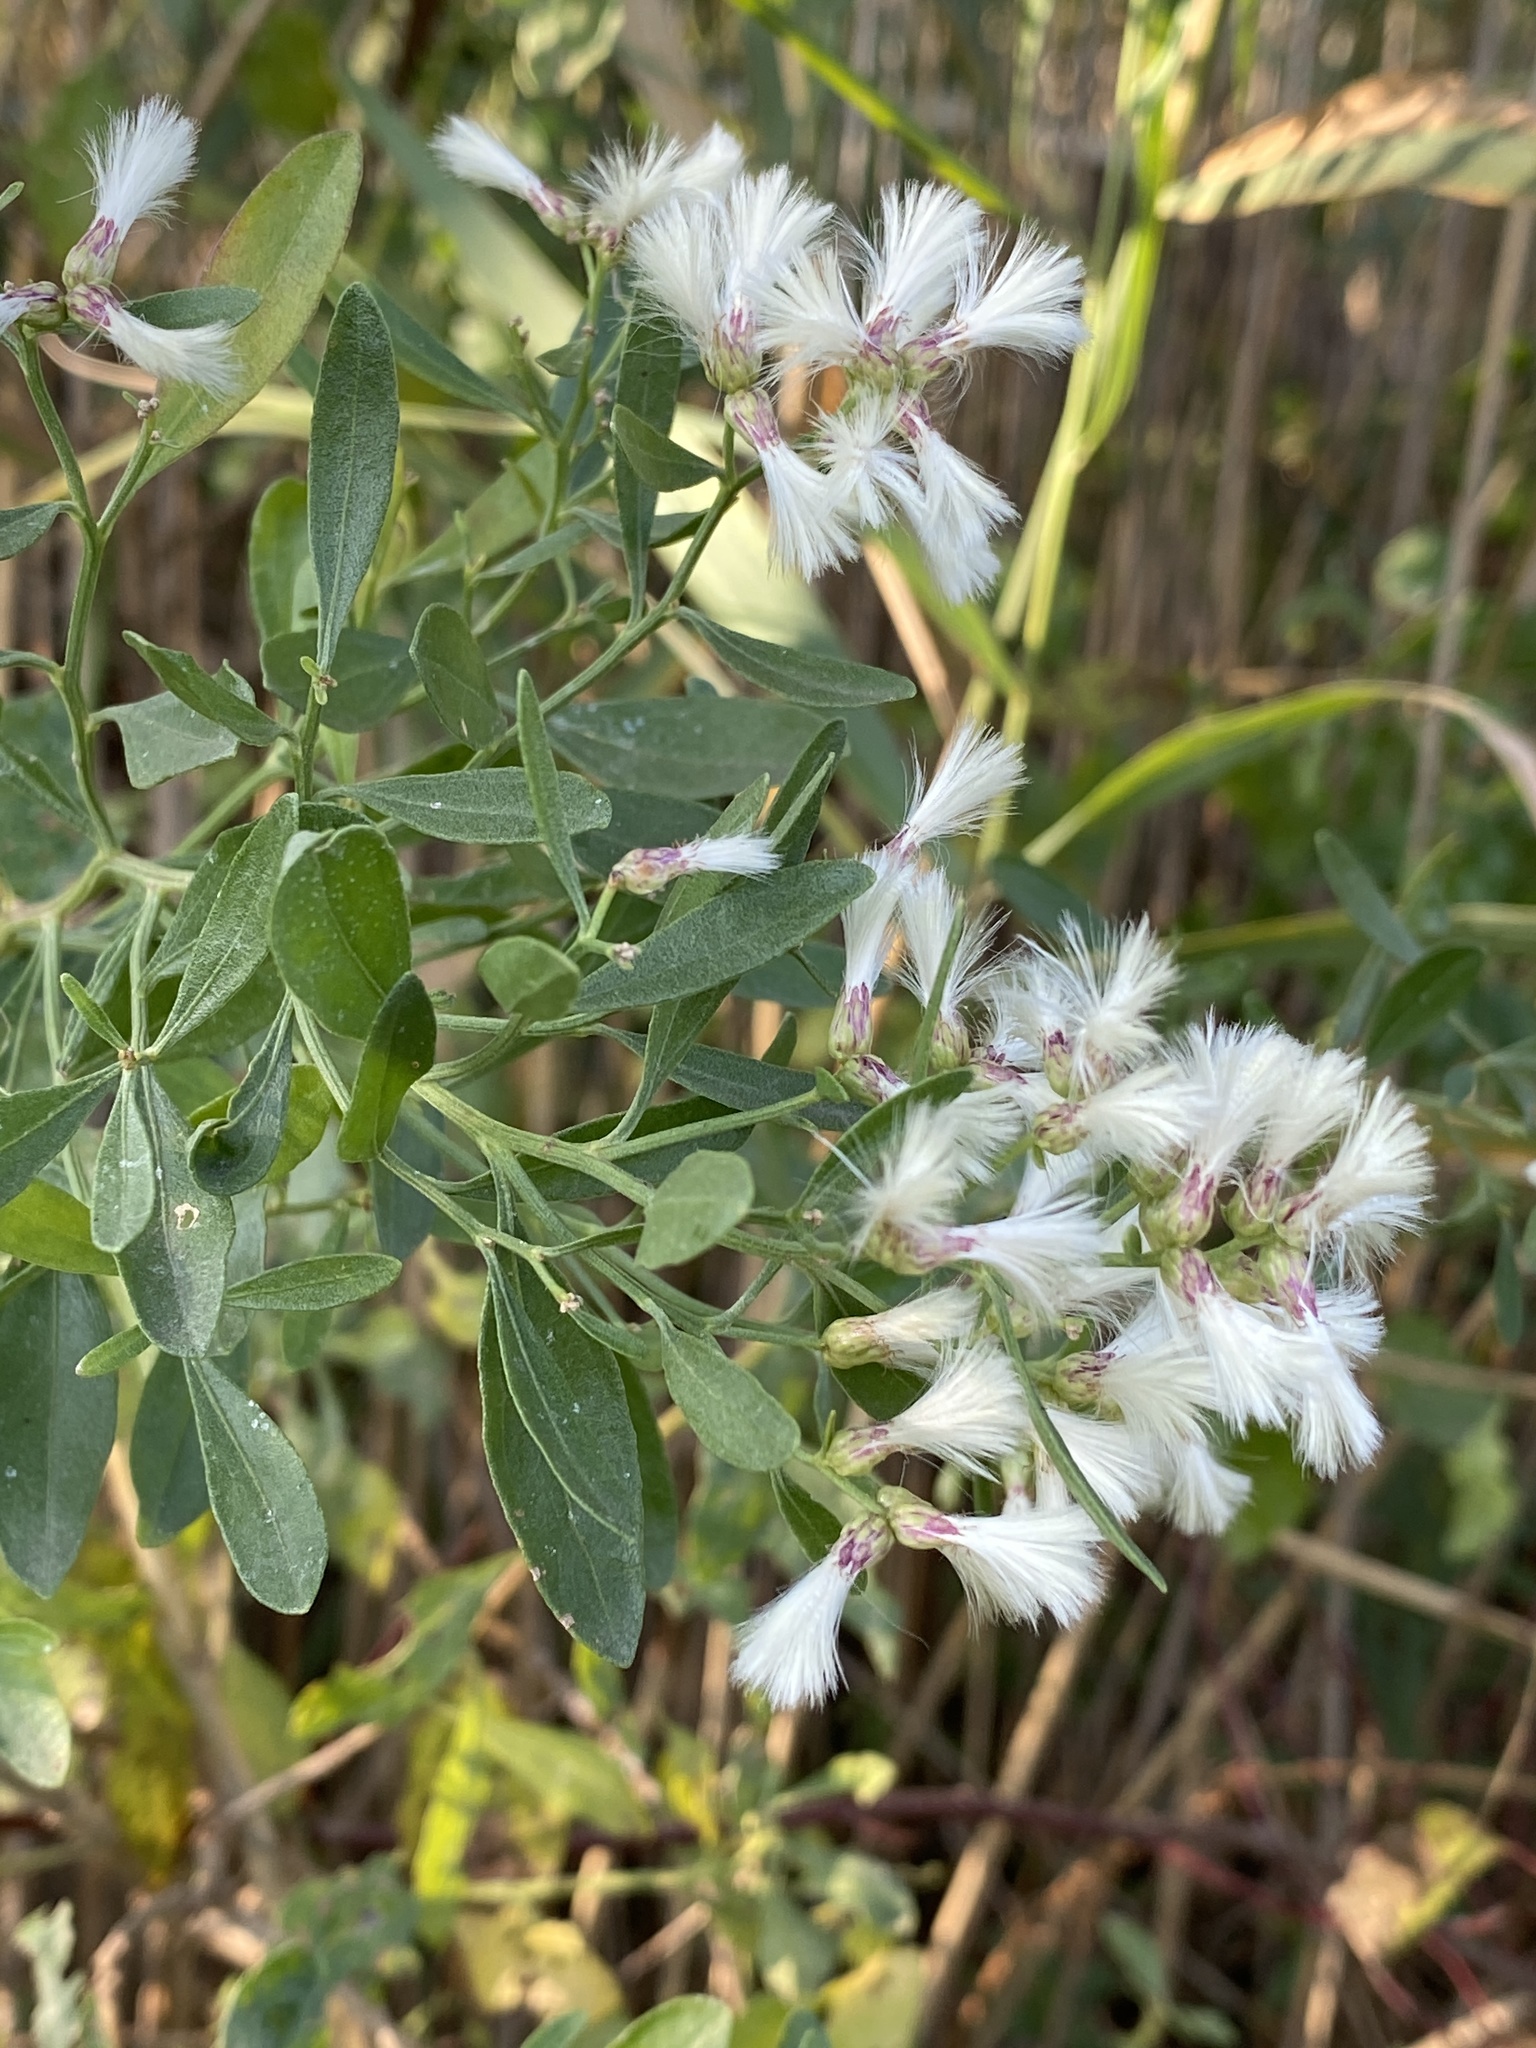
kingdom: Plantae
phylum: Tracheophyta
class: Magnoliopsida
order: Asterales
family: Asteraceae
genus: Baccharis
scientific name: Baccharis halimifolia
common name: Eastern baccharis
